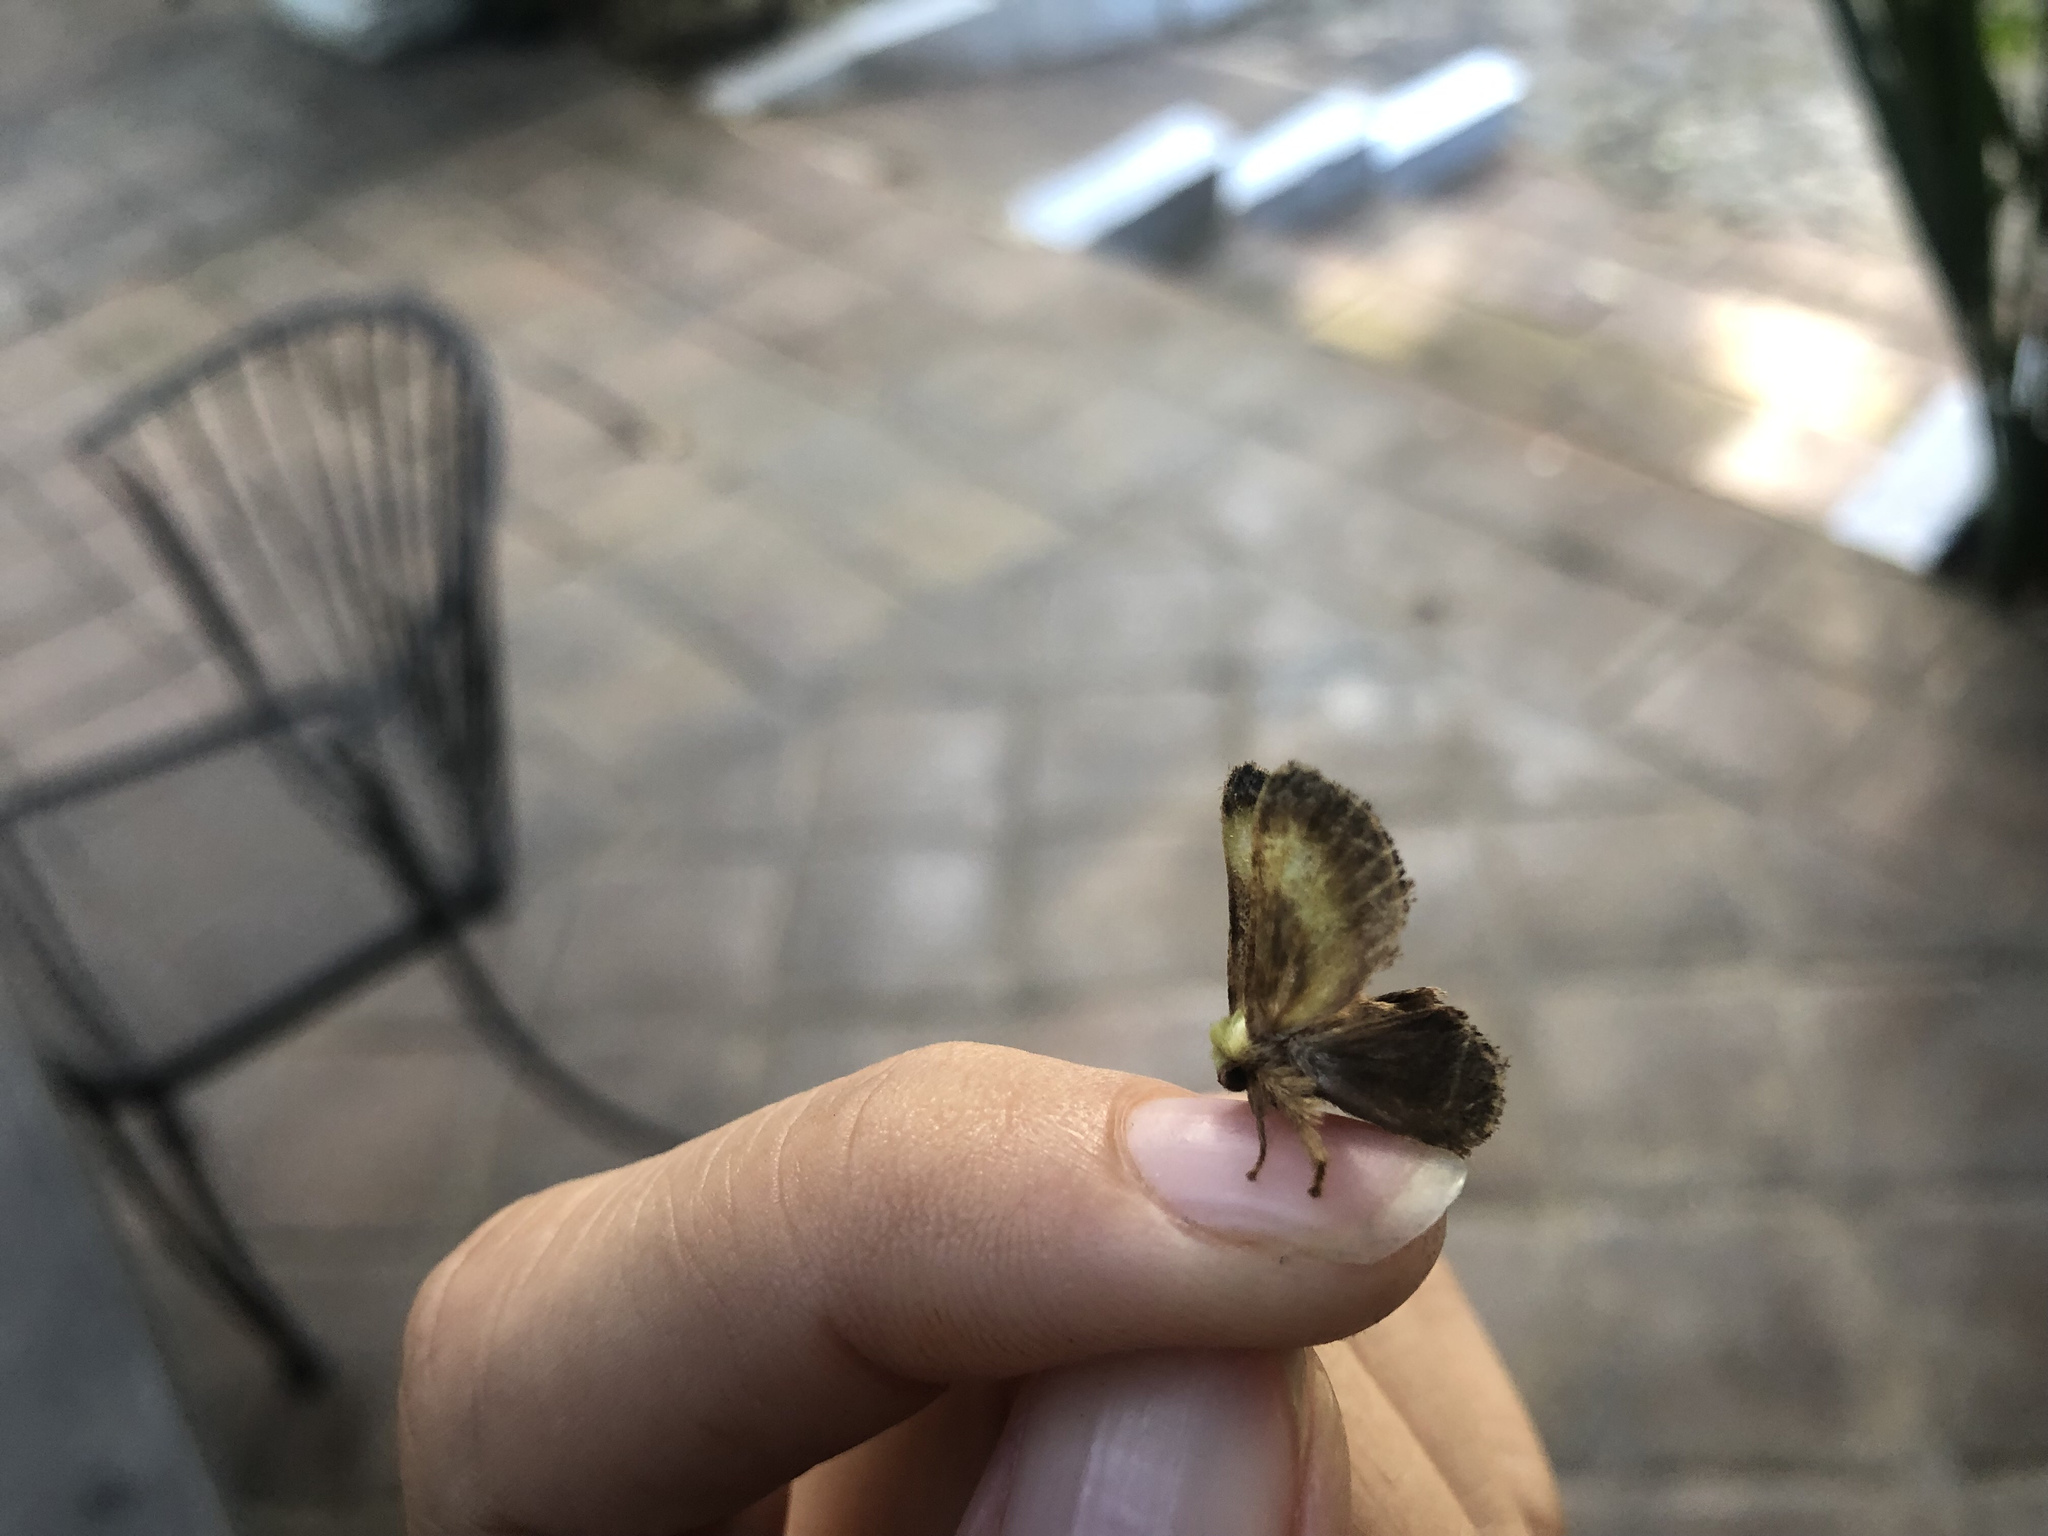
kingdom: Animalia
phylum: Arthropoda
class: Insecta
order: Lepidoptera
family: Limacodidae
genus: Parasa
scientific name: Parasa cebrenis
